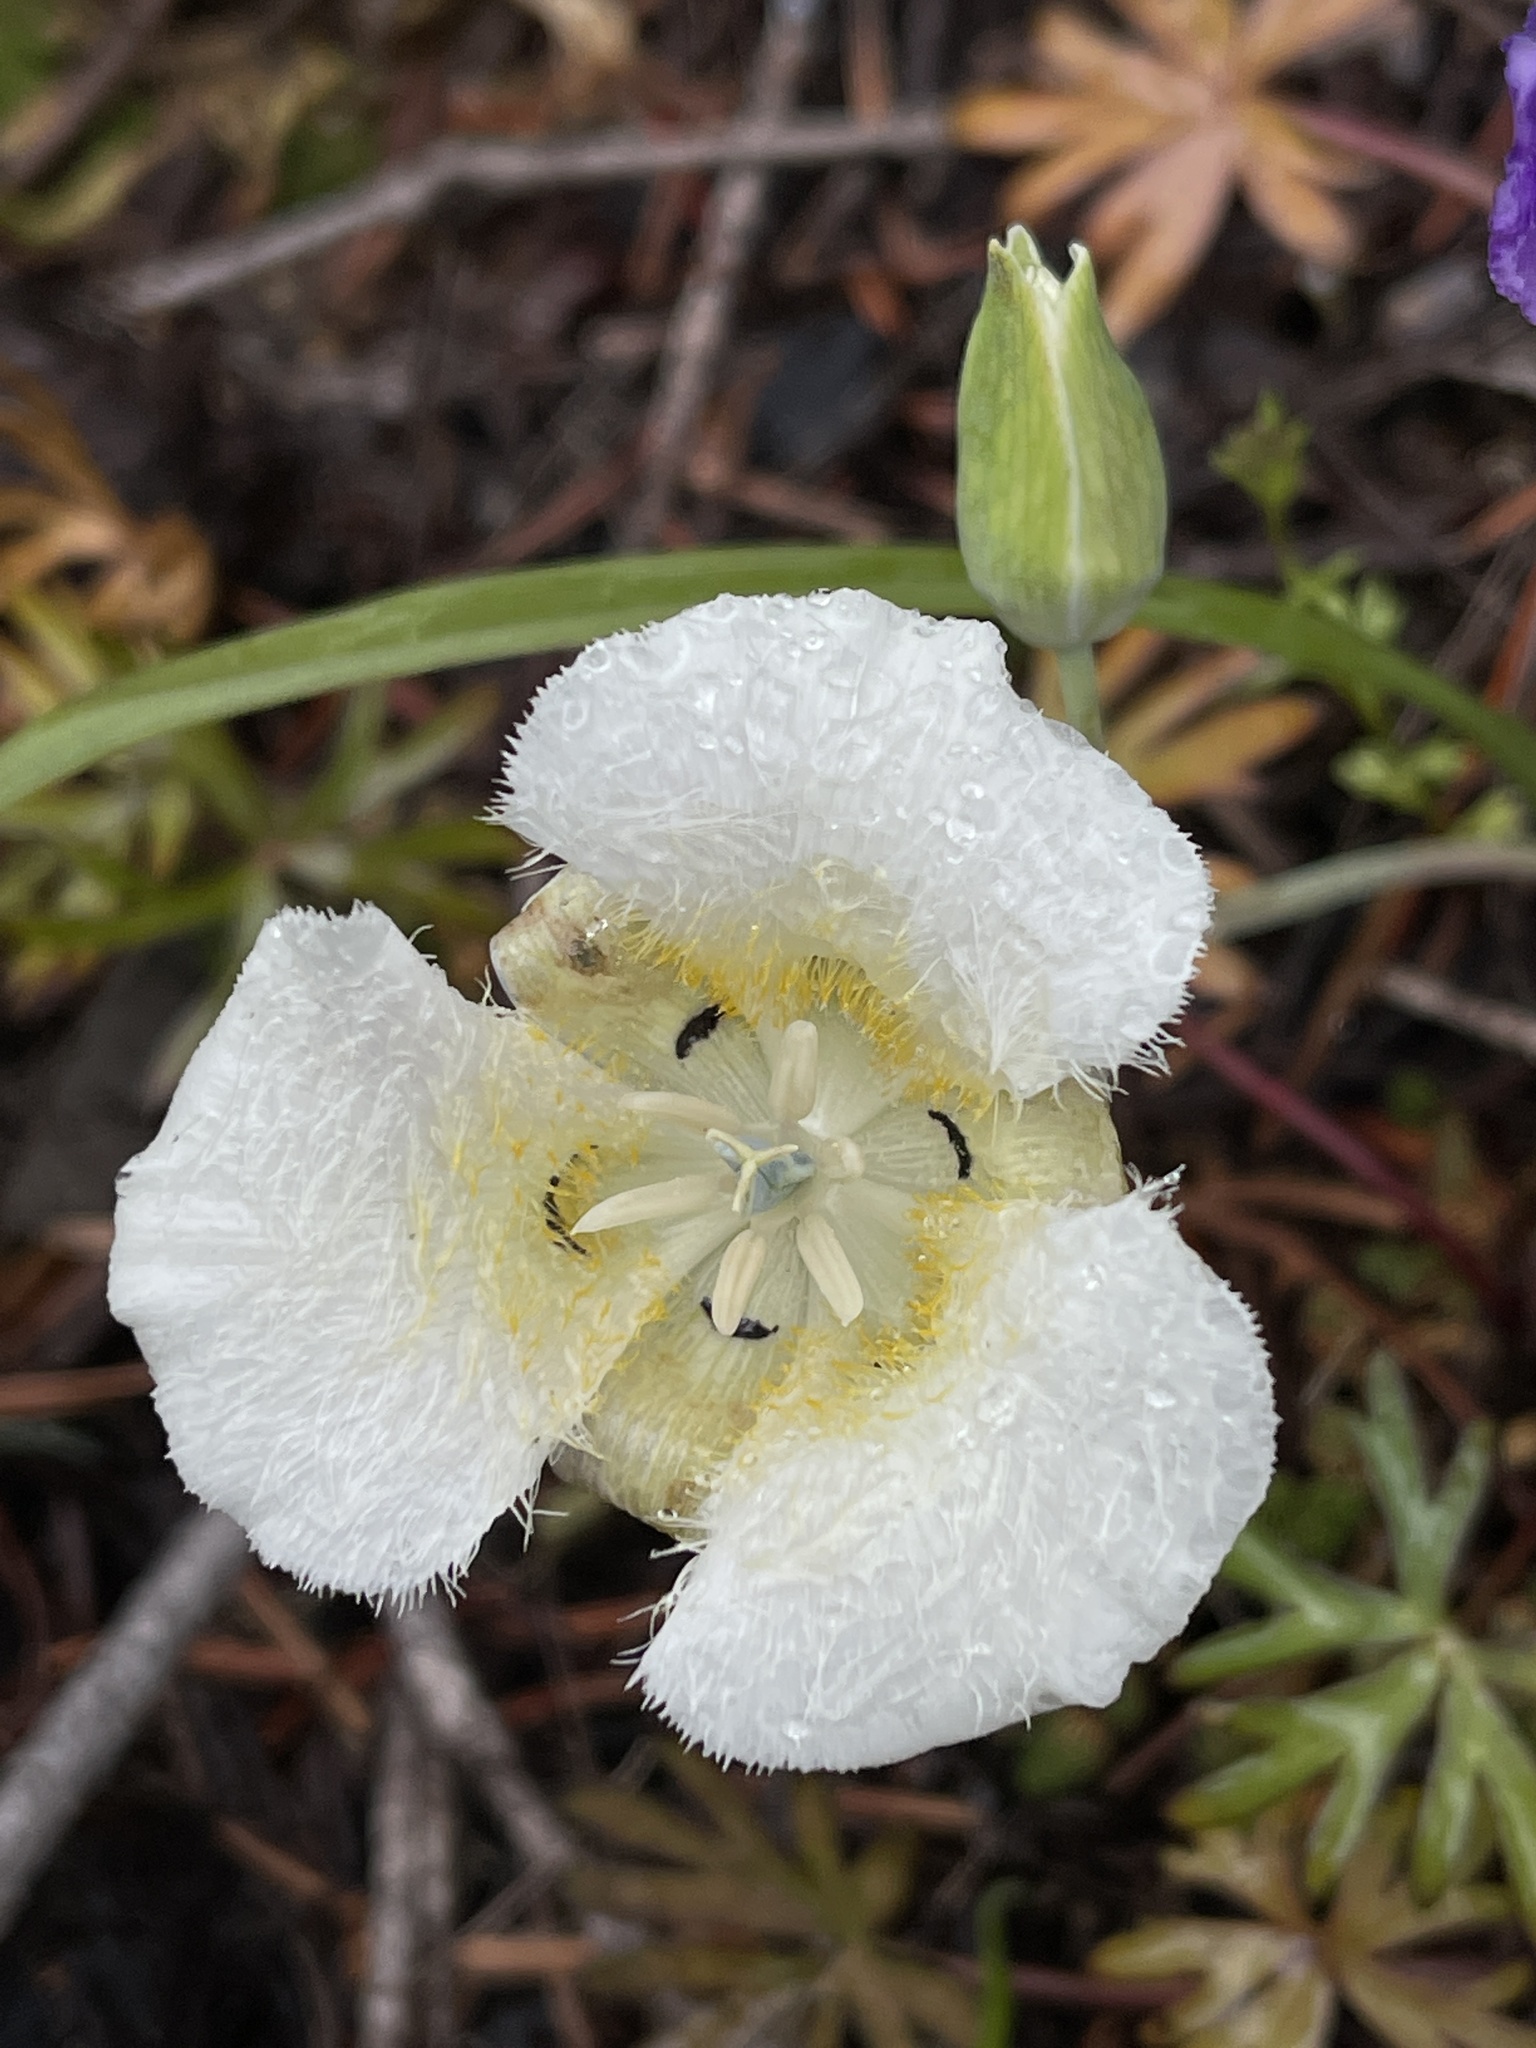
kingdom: Plantae
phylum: Tracheophyta
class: Liliopsida
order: Liliales
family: Liliaceae
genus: Calochortus
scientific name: Calochortus subalpinus
